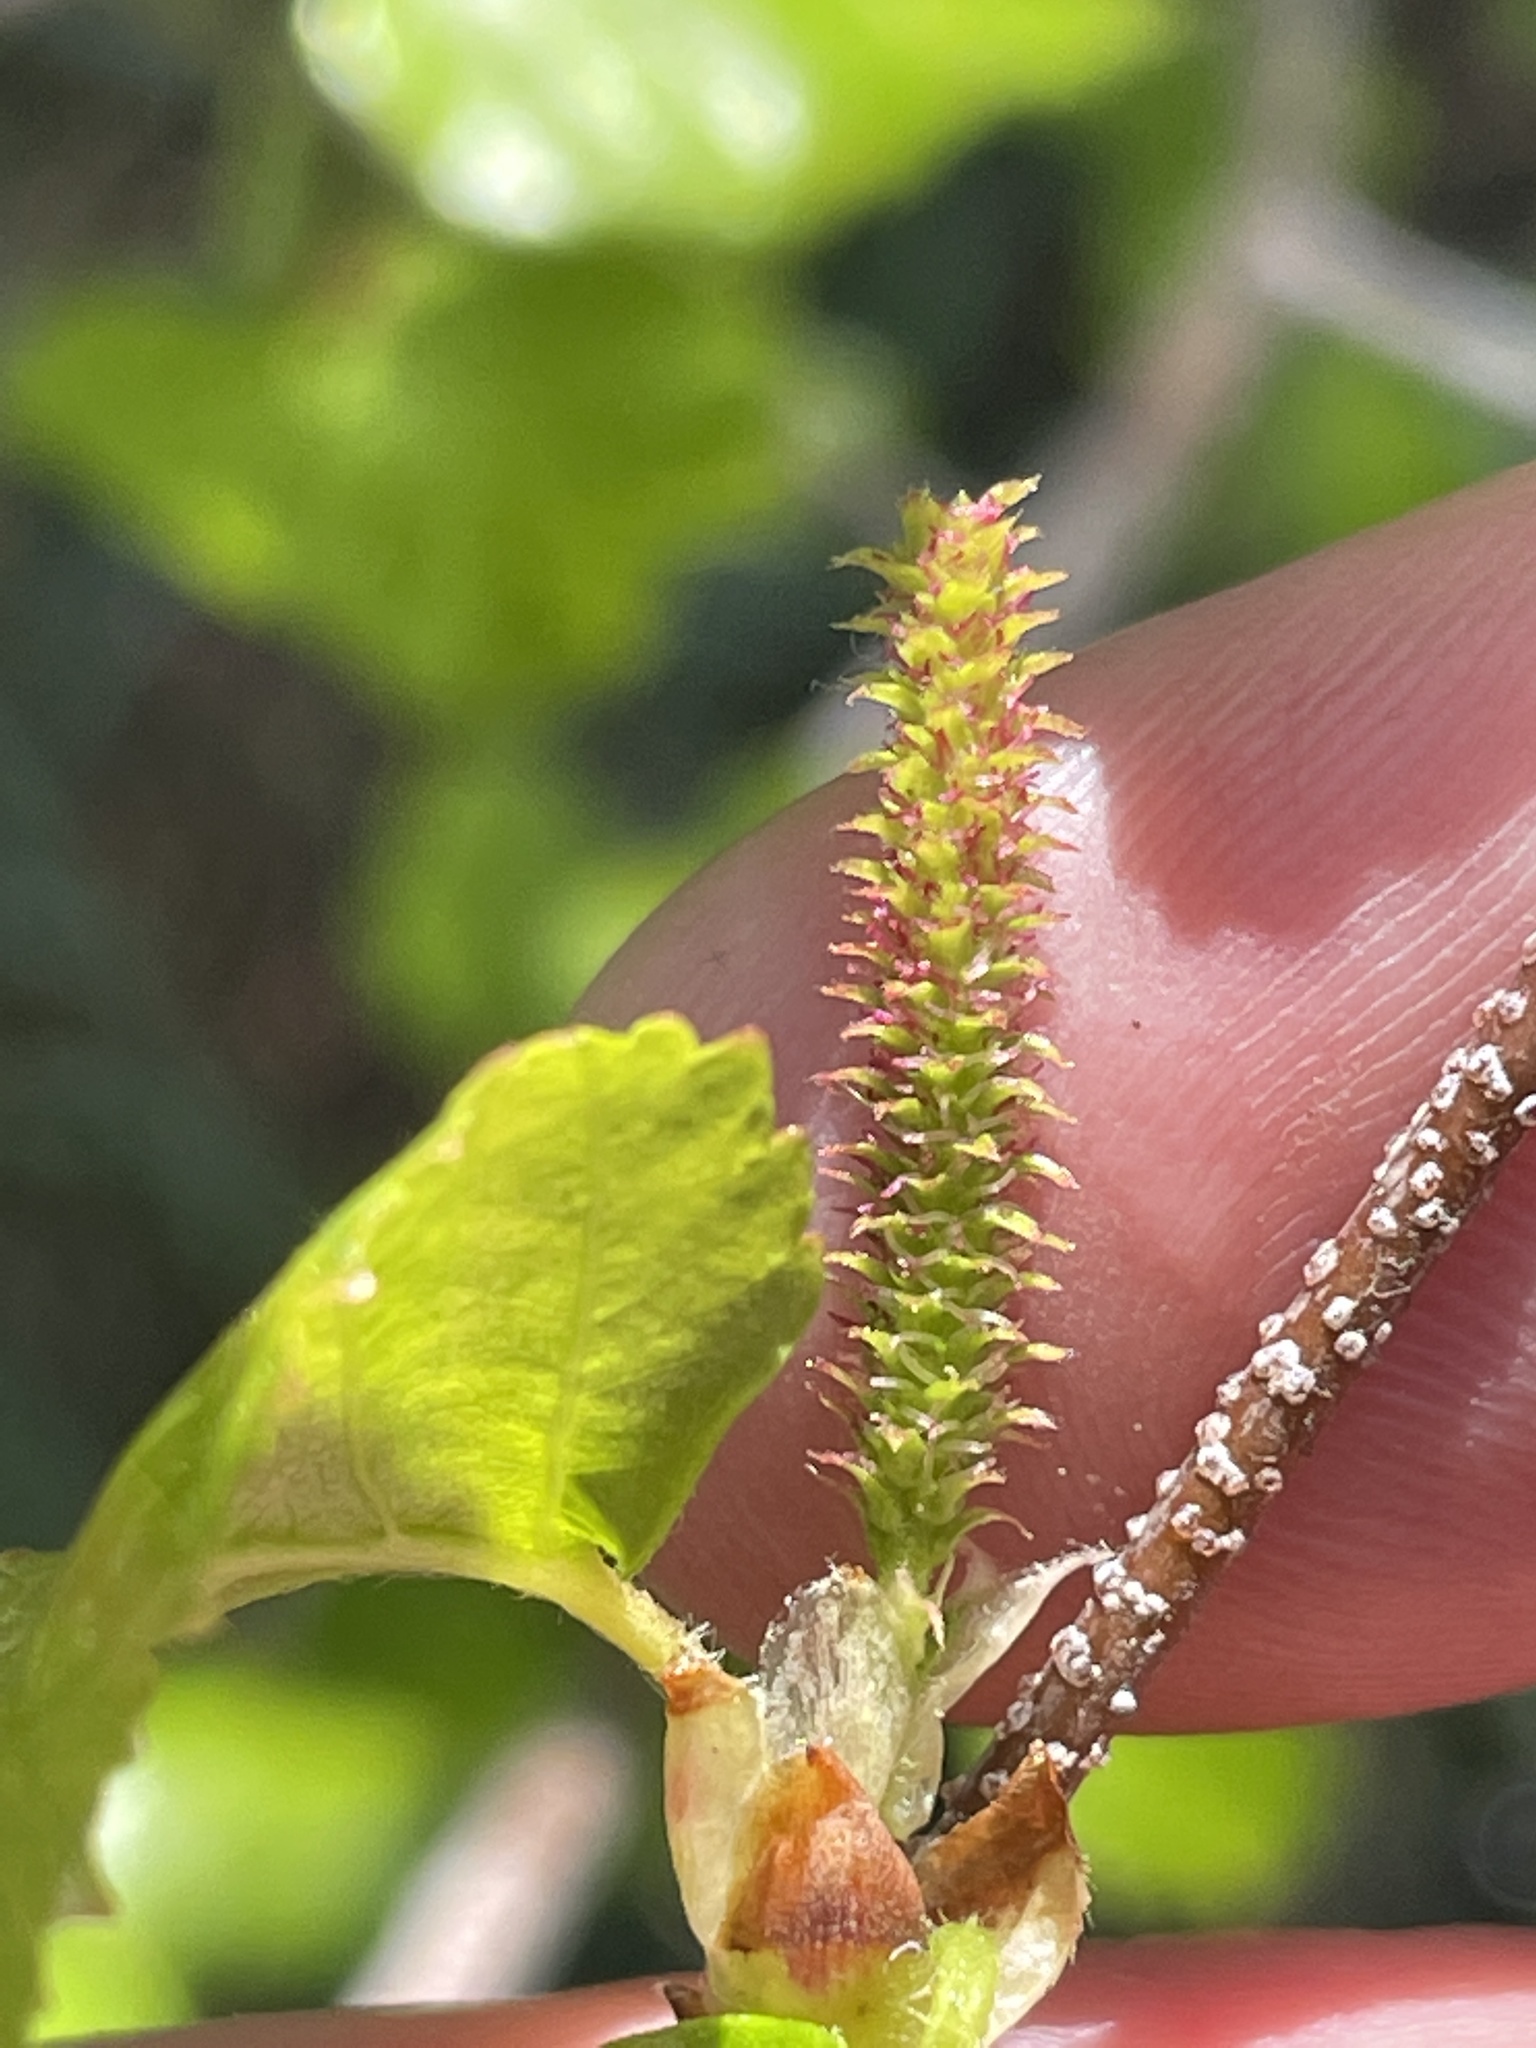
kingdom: Plantae
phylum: Tracheophyta
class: Magnoliopsida
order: Fagales
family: Betulaceae
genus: Betula
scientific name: Betula occidentalis
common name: River birch
